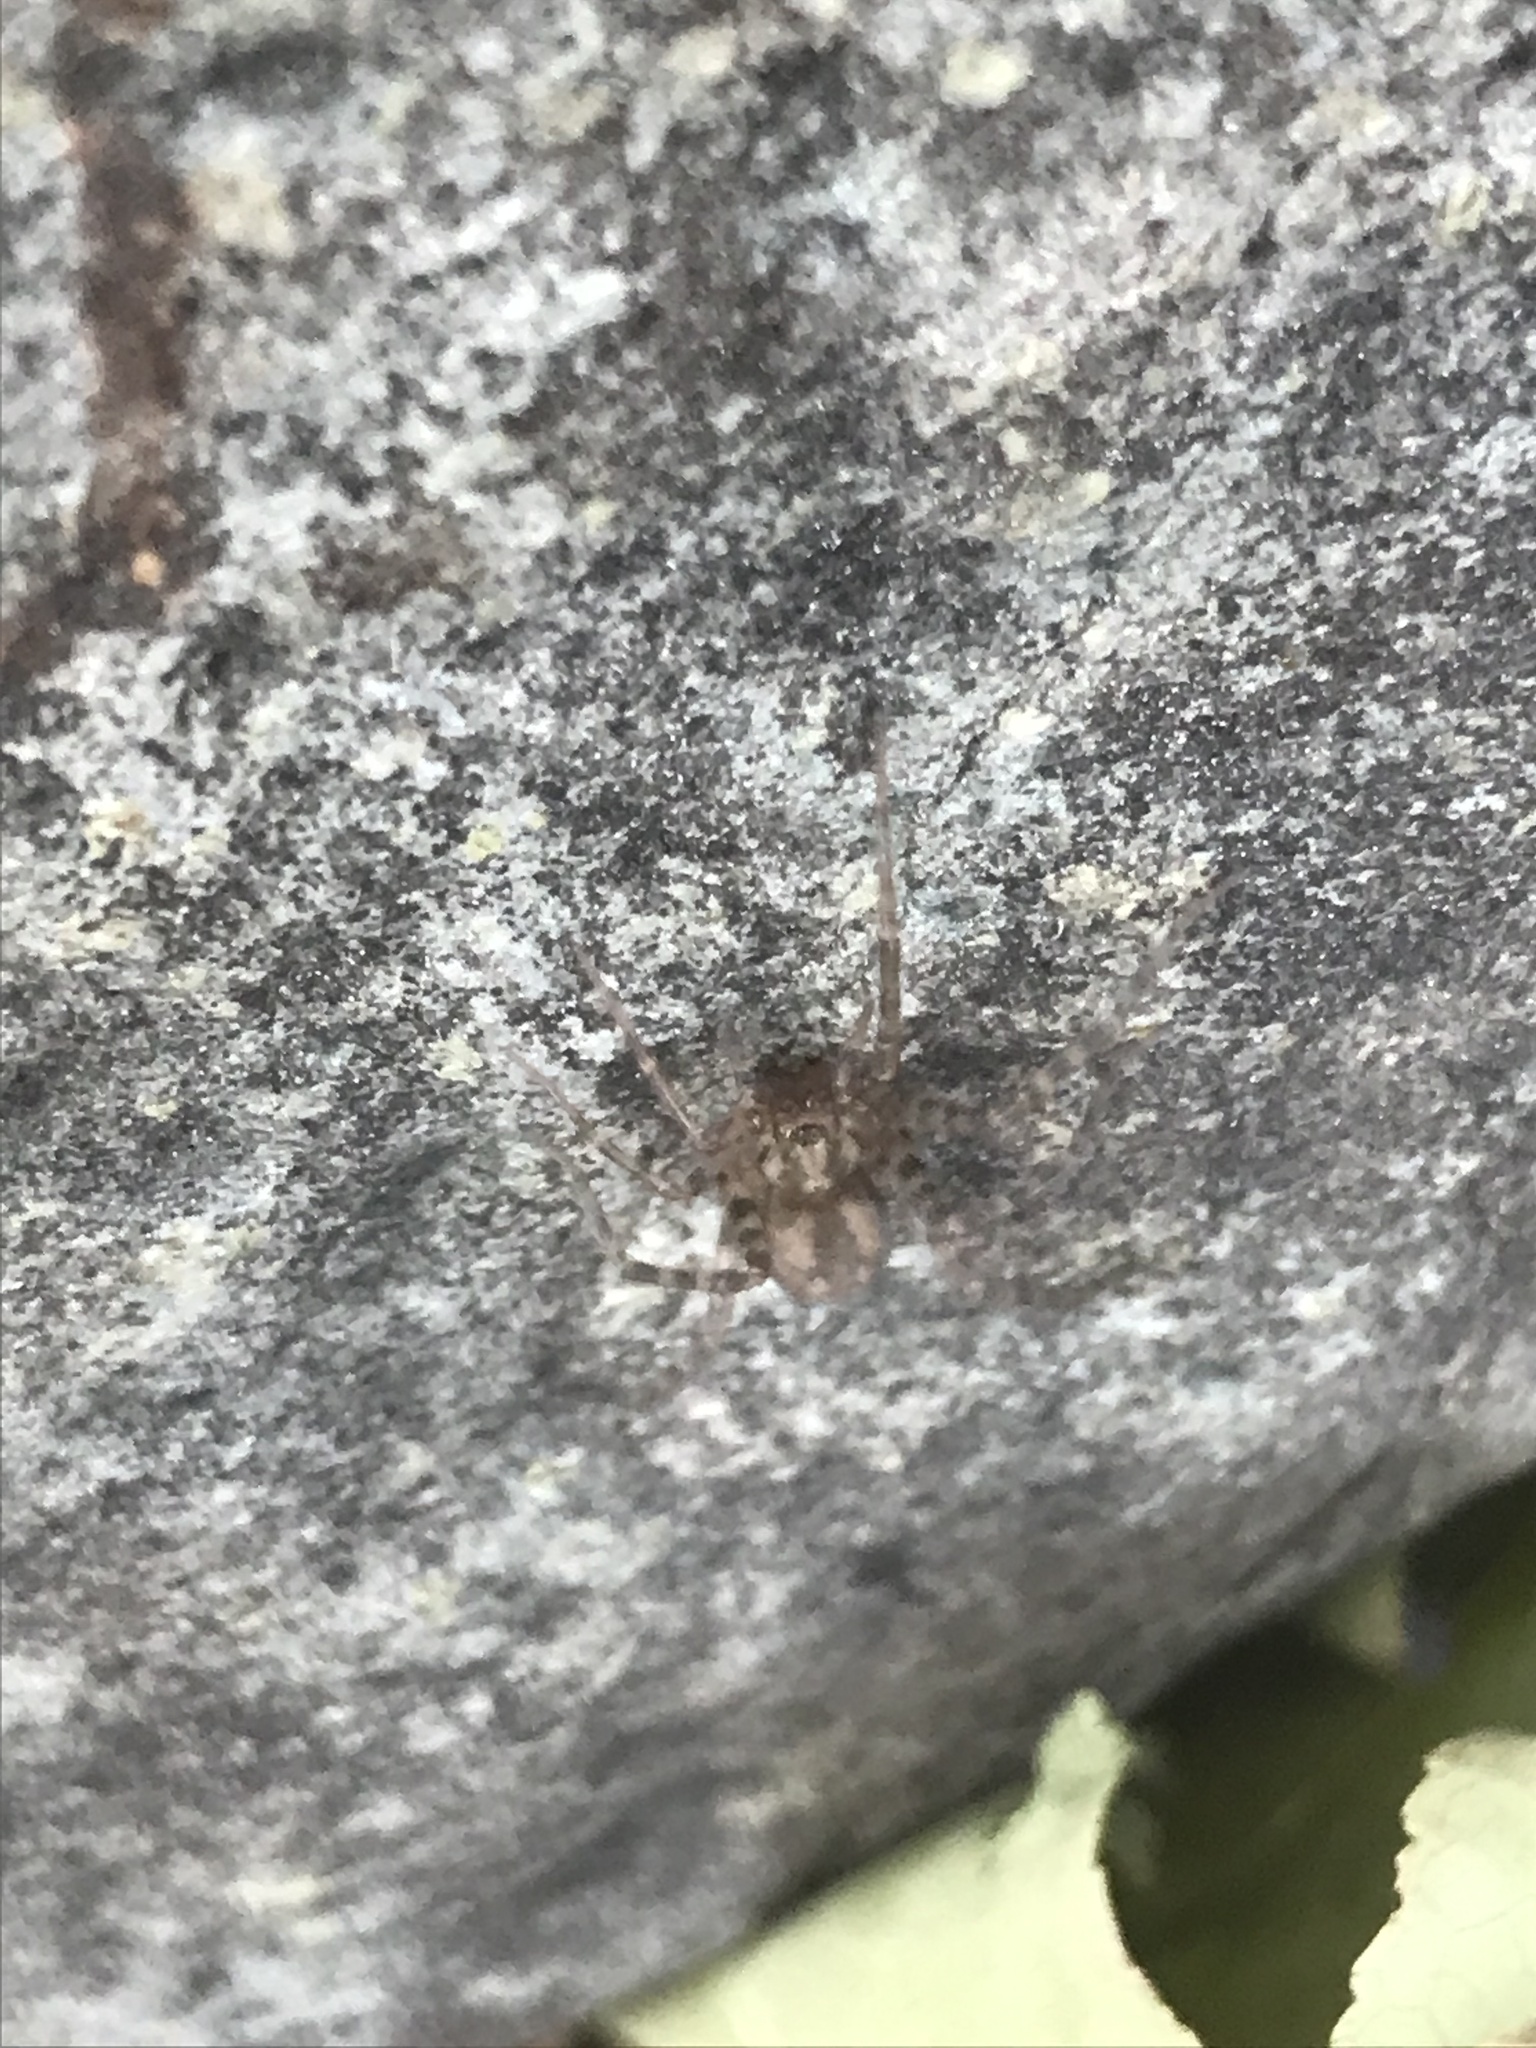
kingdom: Animalia
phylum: Arthropoda
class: Arachnida
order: Araneae
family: Agelenidae
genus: Tegenaria
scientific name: Tegenaria domestica
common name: Barn funnel weaver
